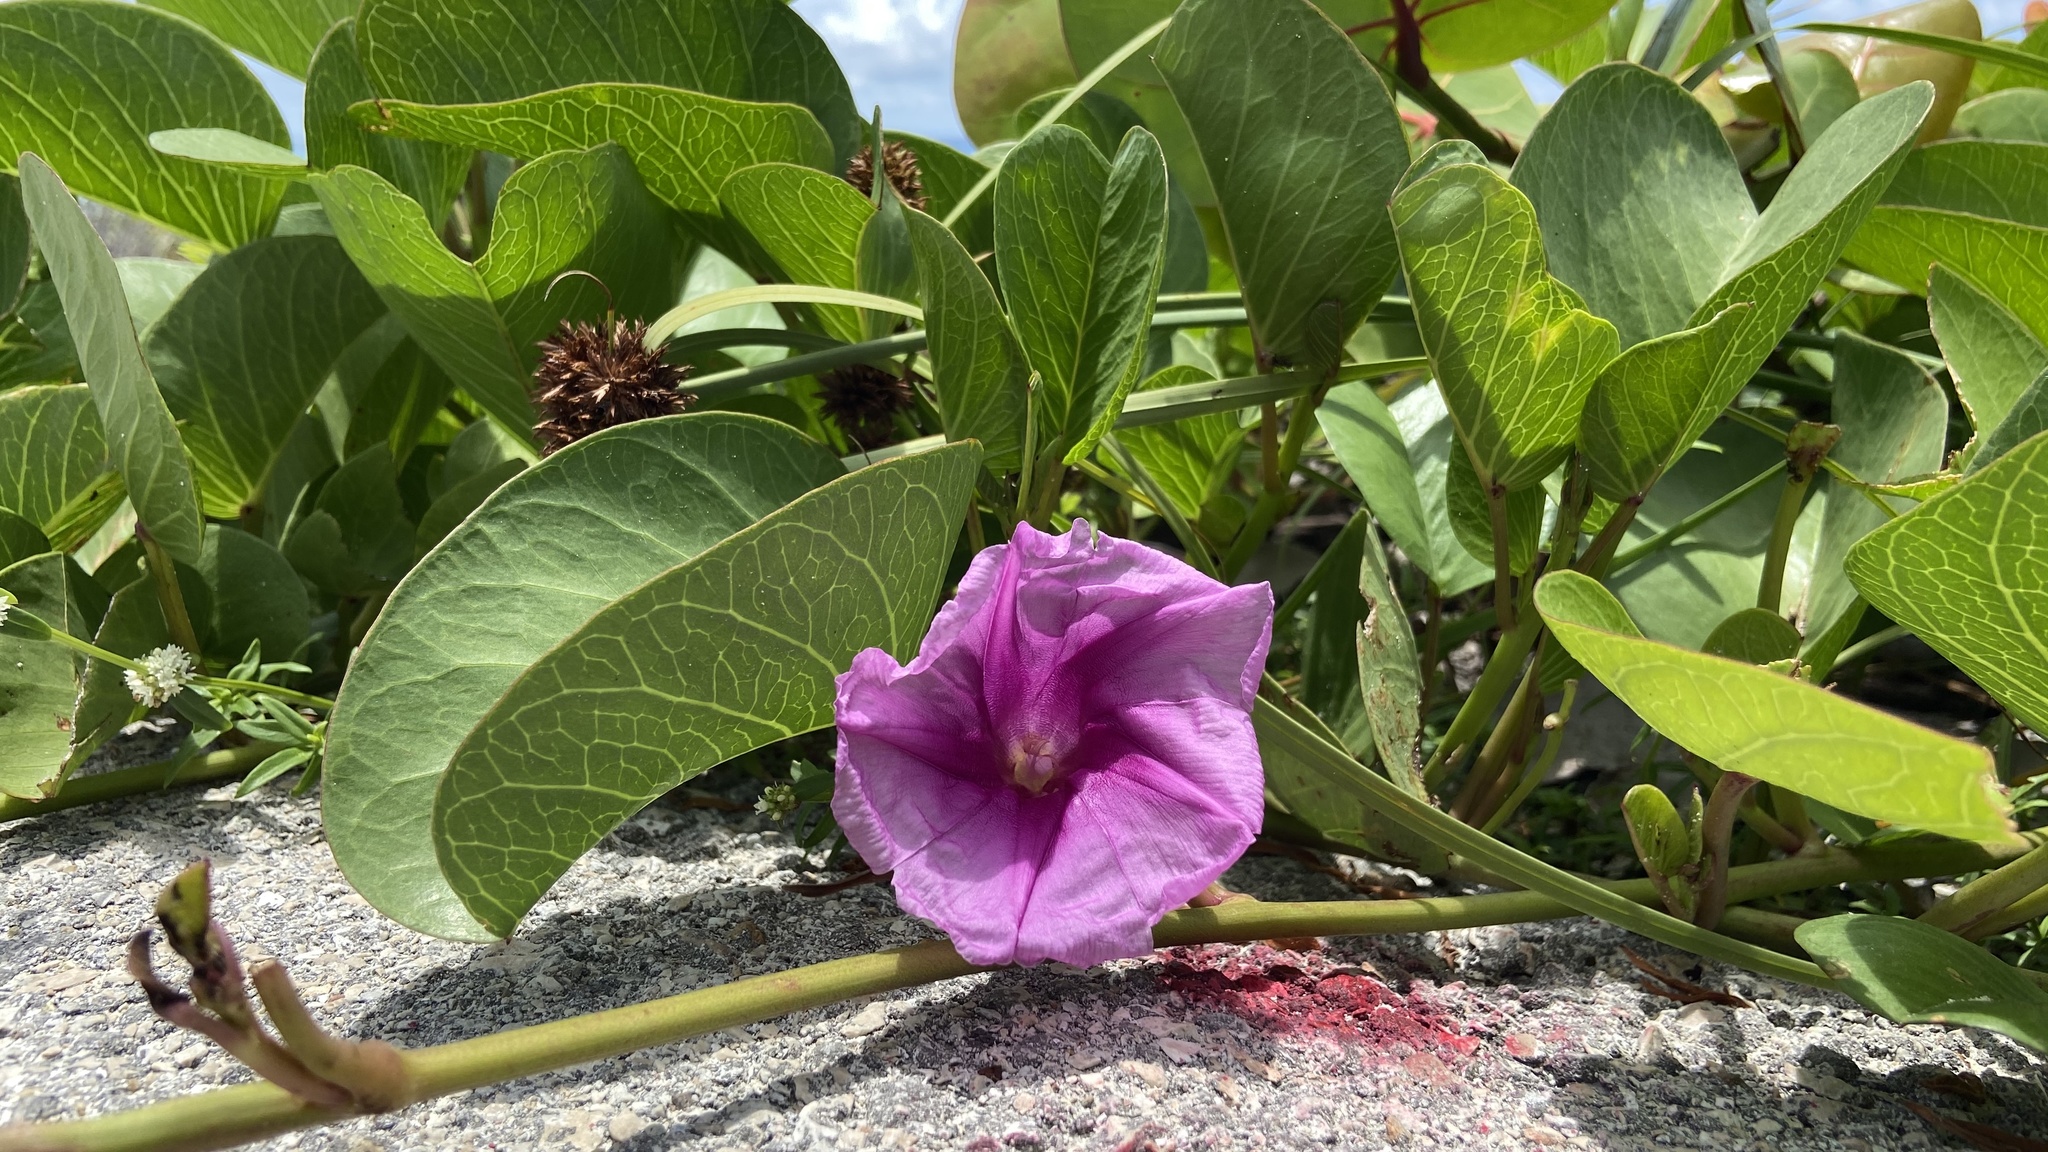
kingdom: Plantae
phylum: Tracheophyta
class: Magnoliopsida
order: Solanales
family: Convolvulaceae
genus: Ipomoea
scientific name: Ipomoea pes-caprae
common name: Beach morning glory
